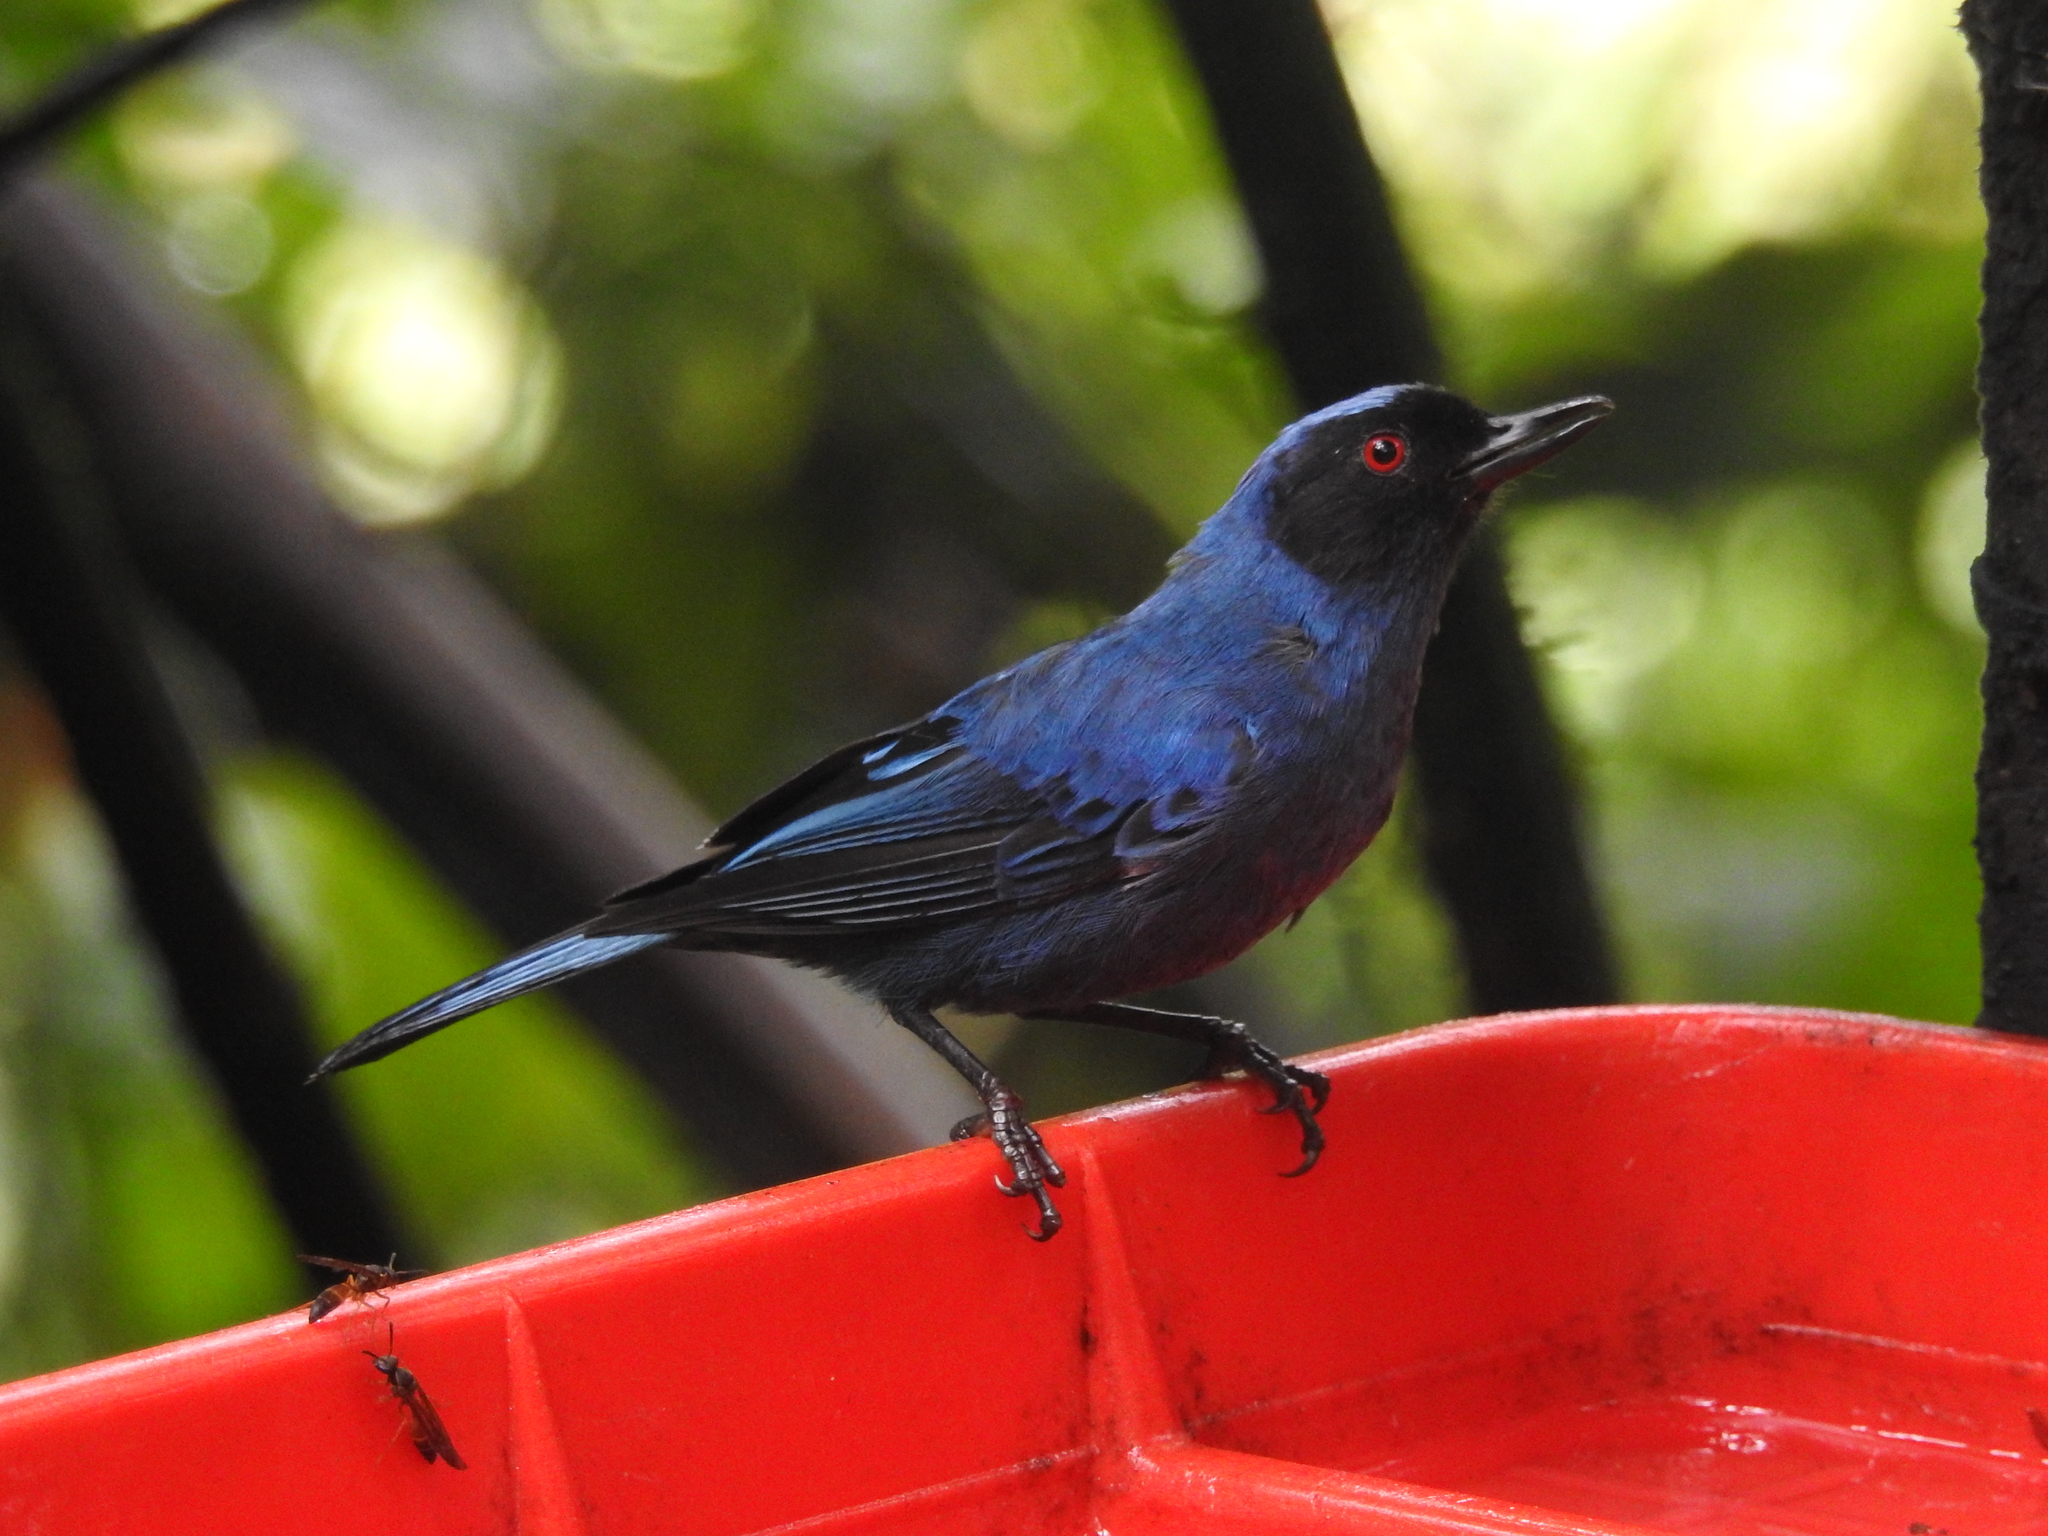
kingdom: Animalia
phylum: Chordata
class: Aves
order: Passeriformes
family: Thraupidae
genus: Diglossa
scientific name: Diglossa cyanea
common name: Masked flowerpiercer
